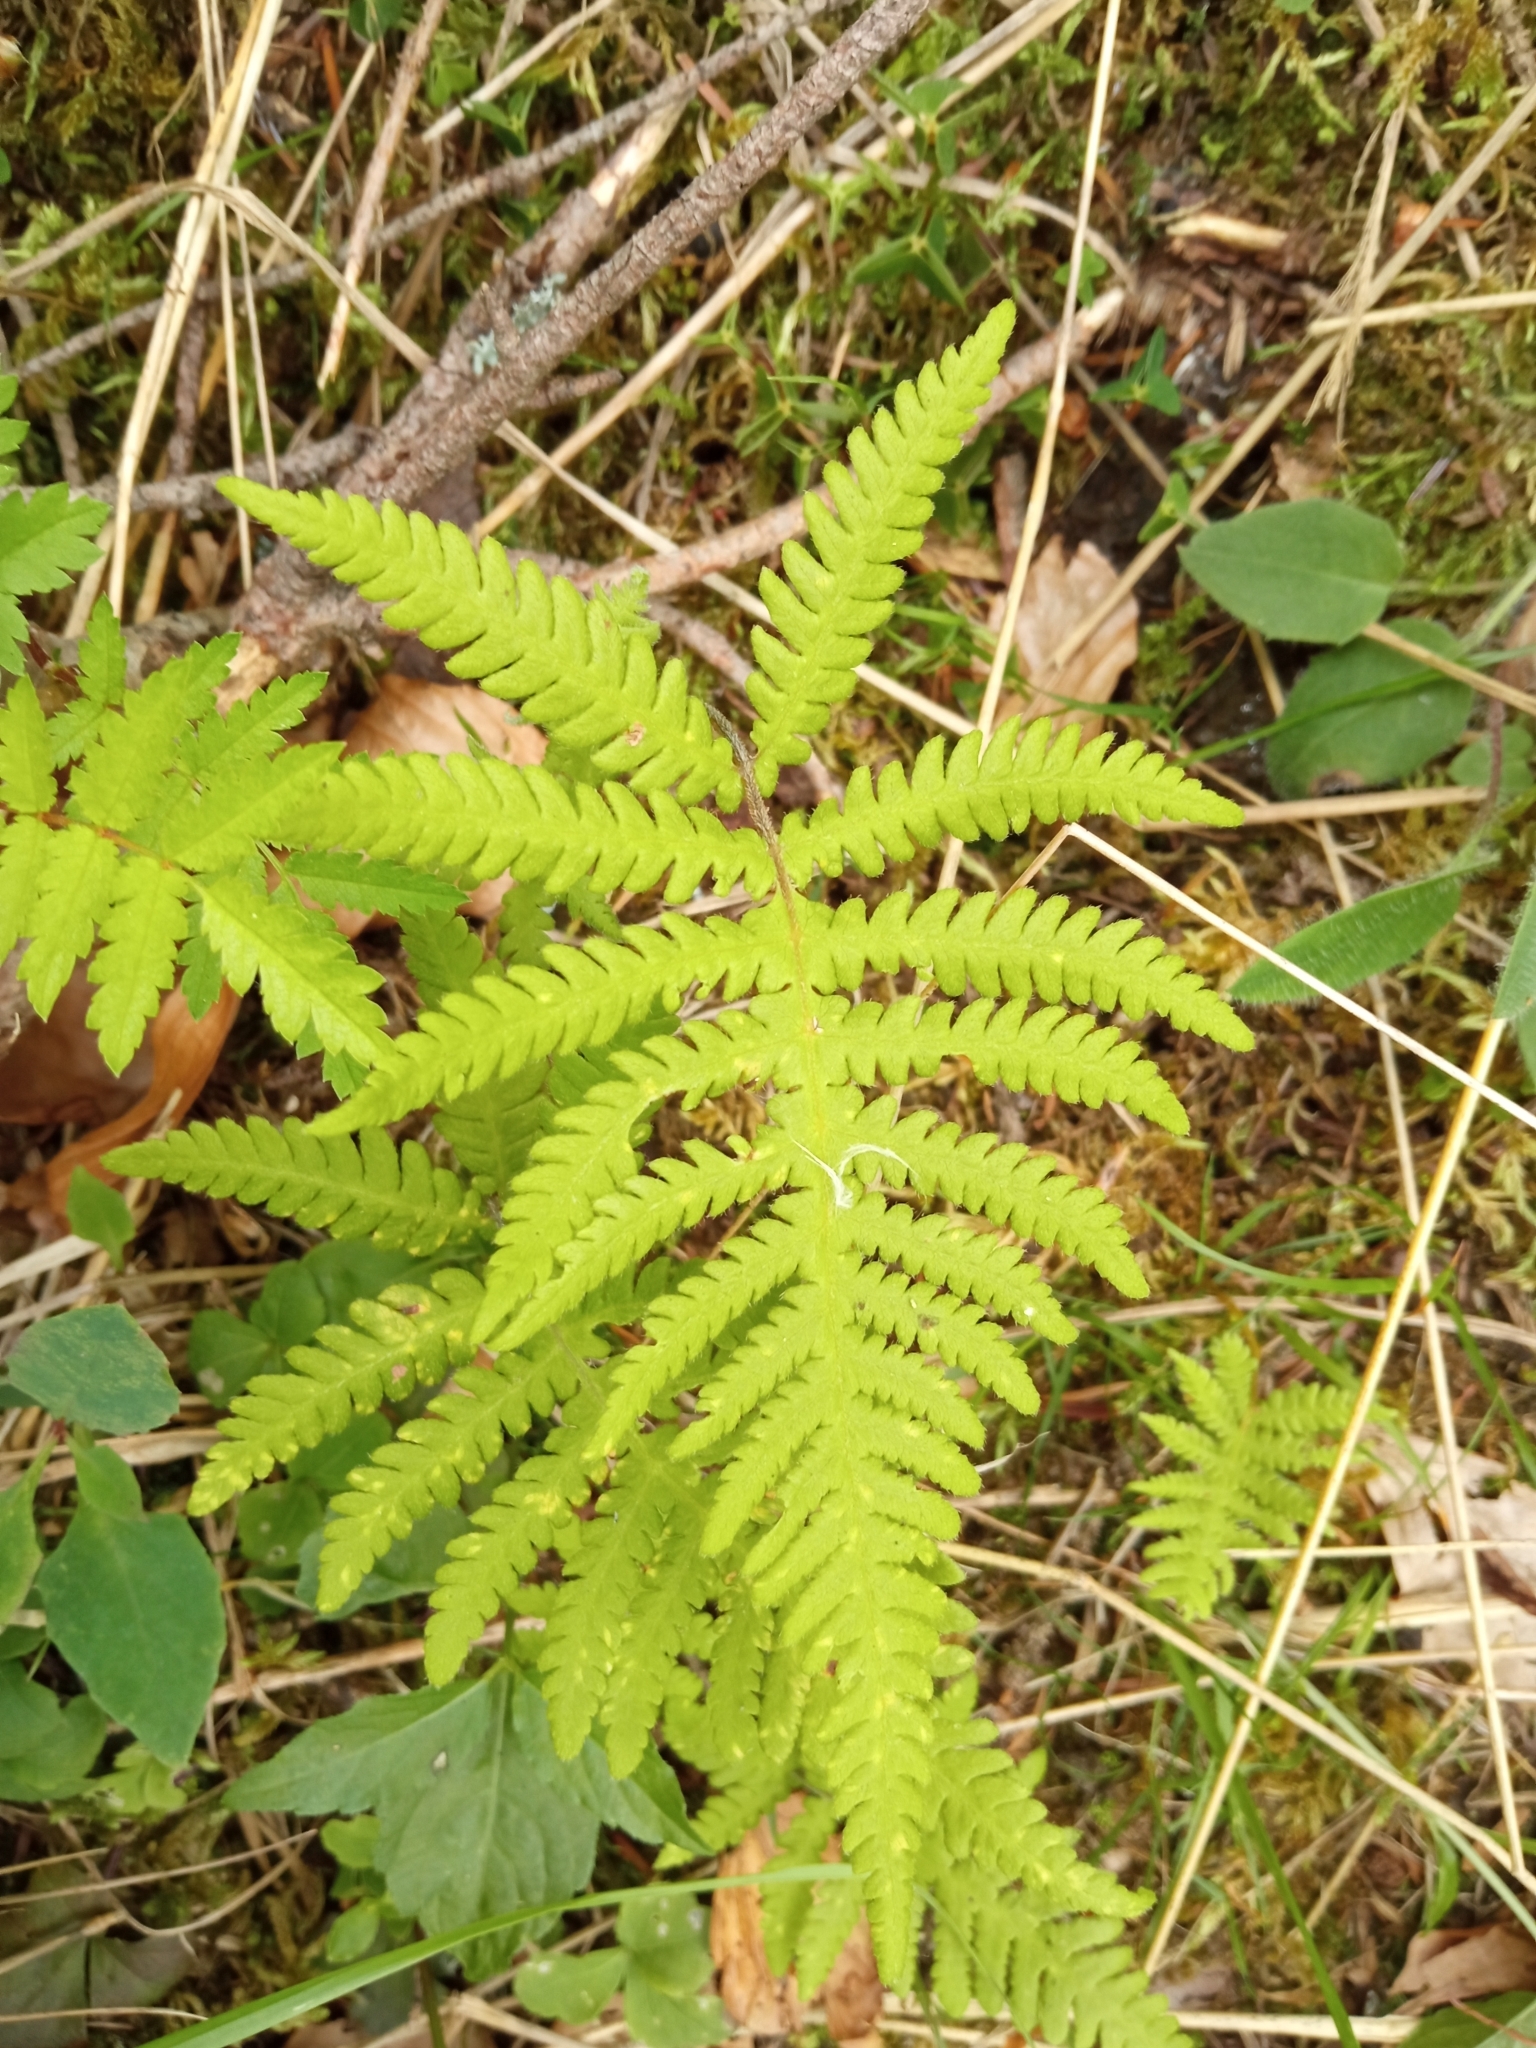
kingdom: Plantae
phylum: Tracheophyta
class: Polypodiopsida
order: Polypodiales
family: Thelypteridaceae
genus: Phegopteris
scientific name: Phegopteris connectilis
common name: Beech fern
